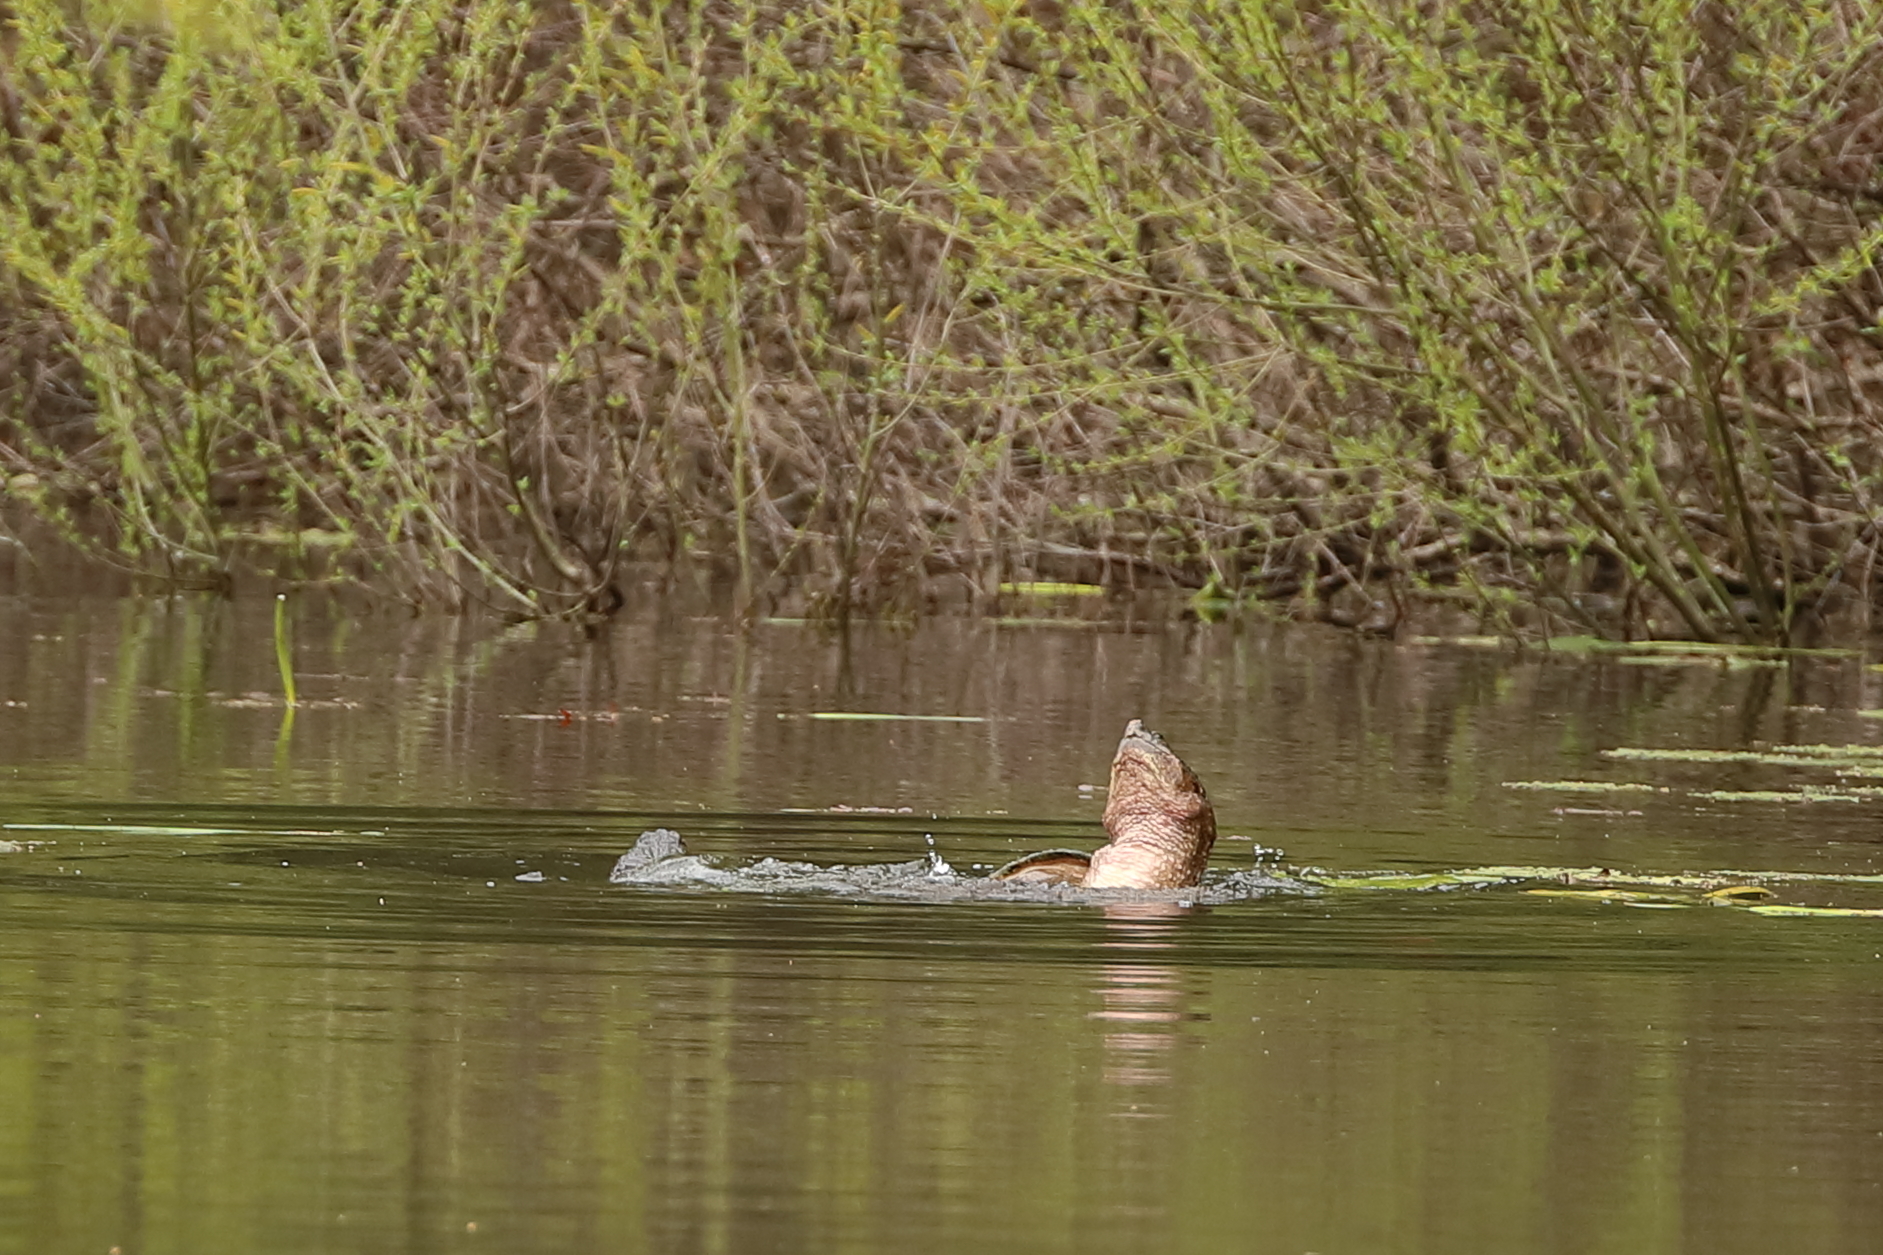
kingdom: Animalia
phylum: Chordata
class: Testudines
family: Chelydridae
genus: Chelydra
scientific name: Chelydra serpentina
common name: Common snapping turtle
